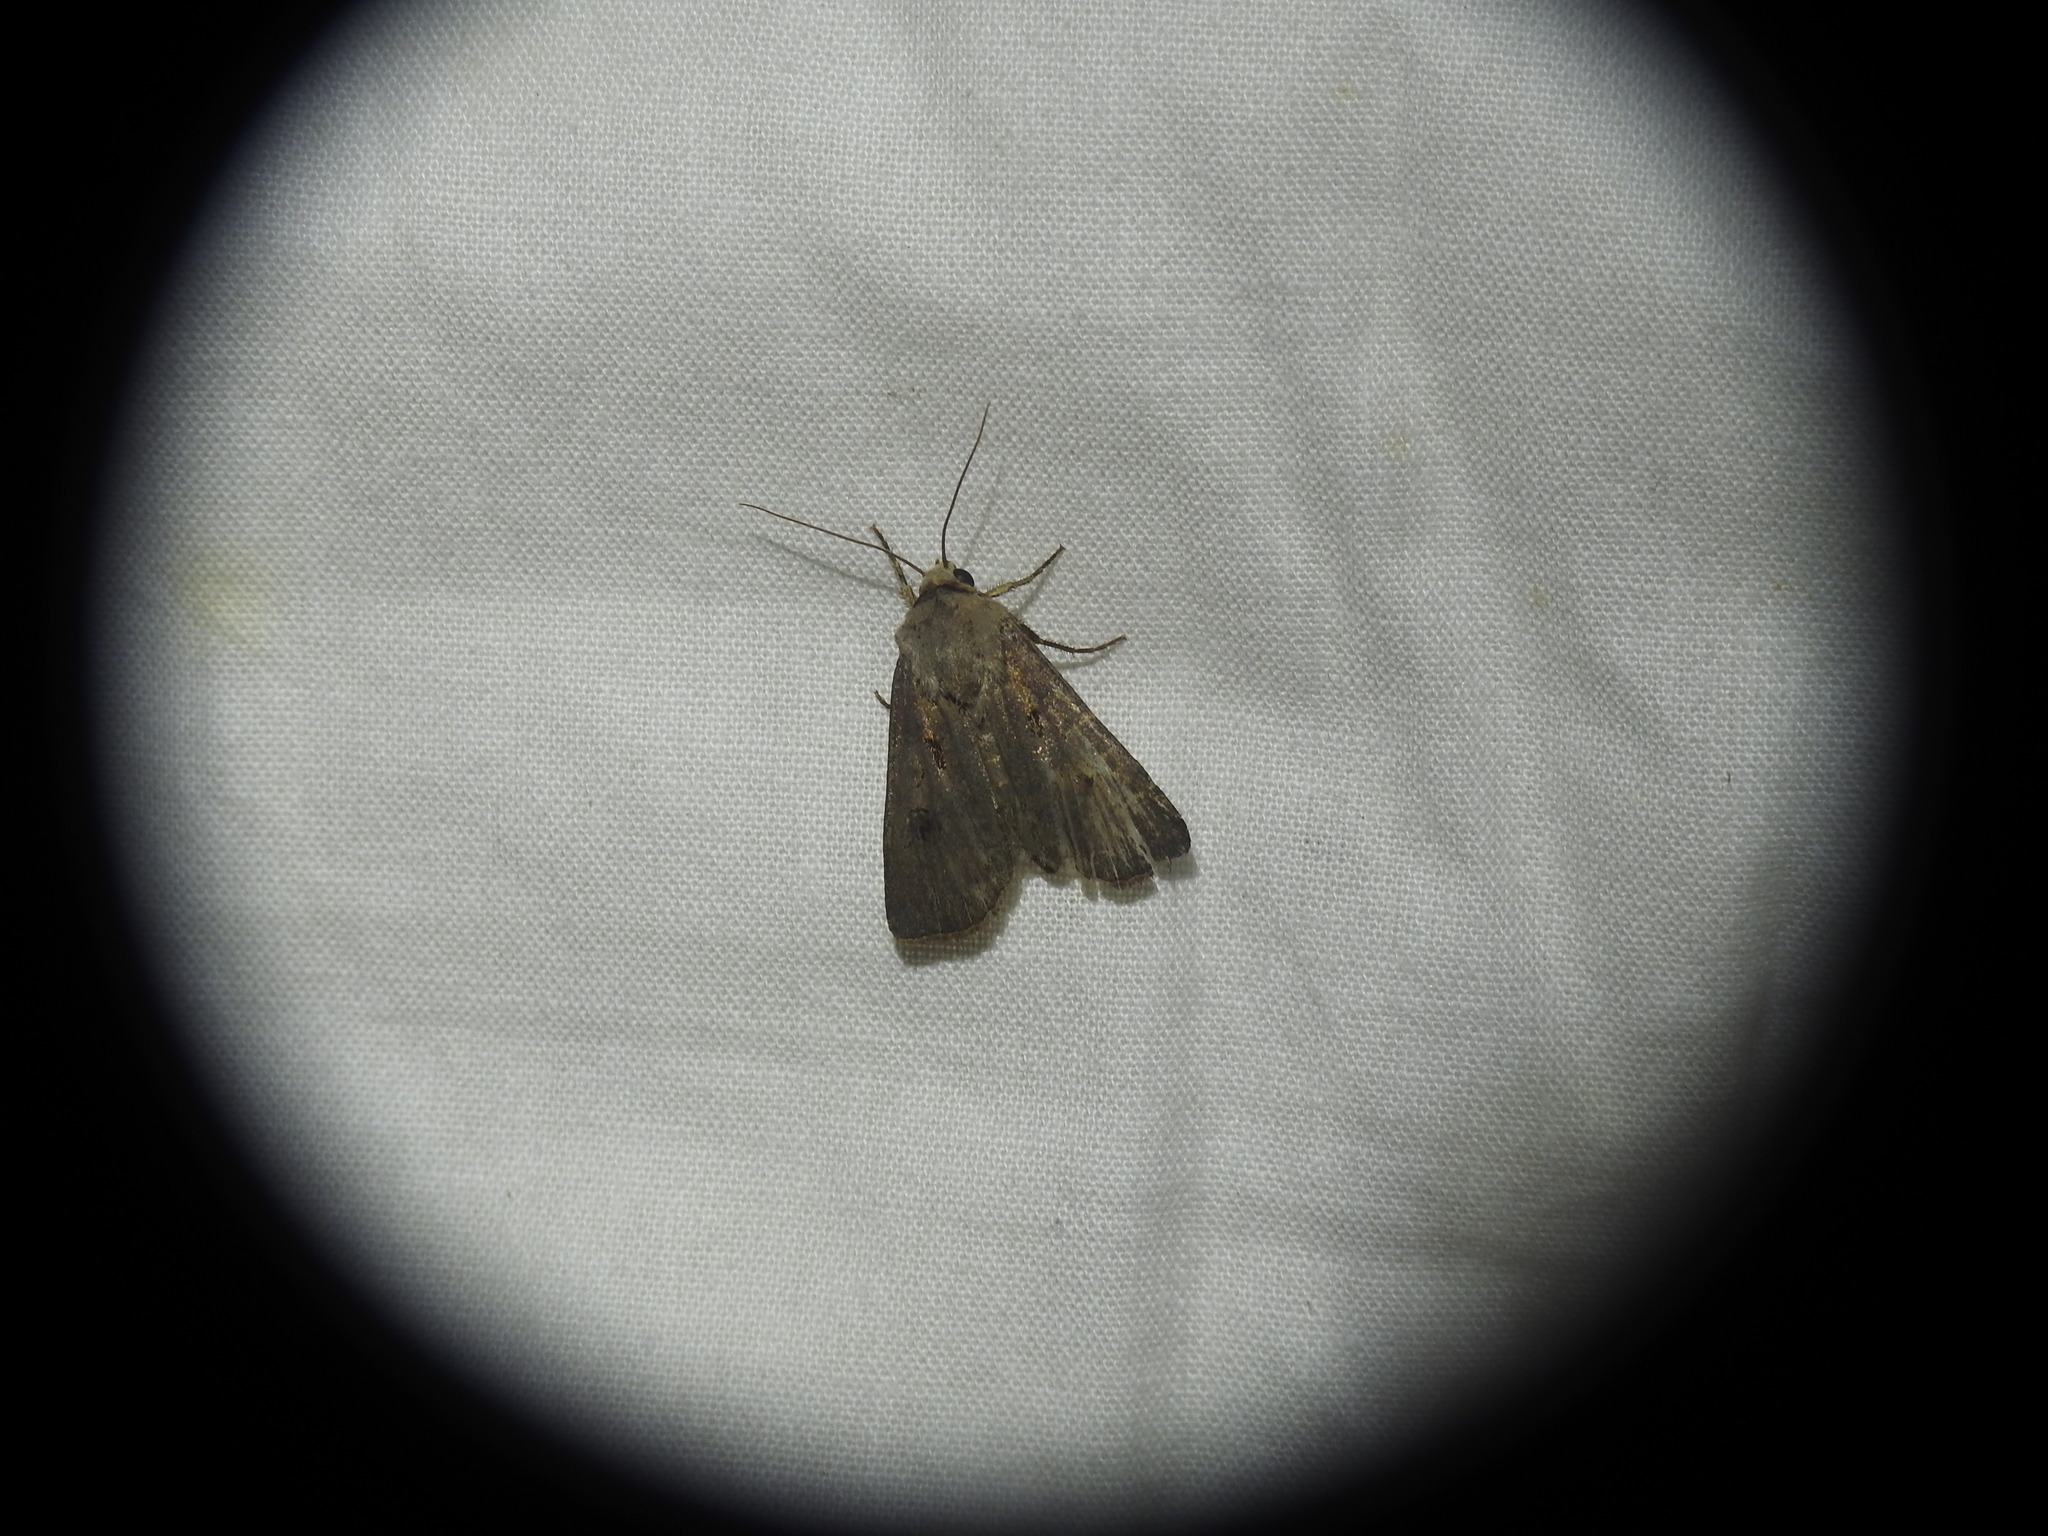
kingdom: Animalia
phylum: Arthropoda
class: Insecta
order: Lepidoptera
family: Noctuidae
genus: Agrotis
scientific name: Agrotis exclamationis
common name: Heart and dart
